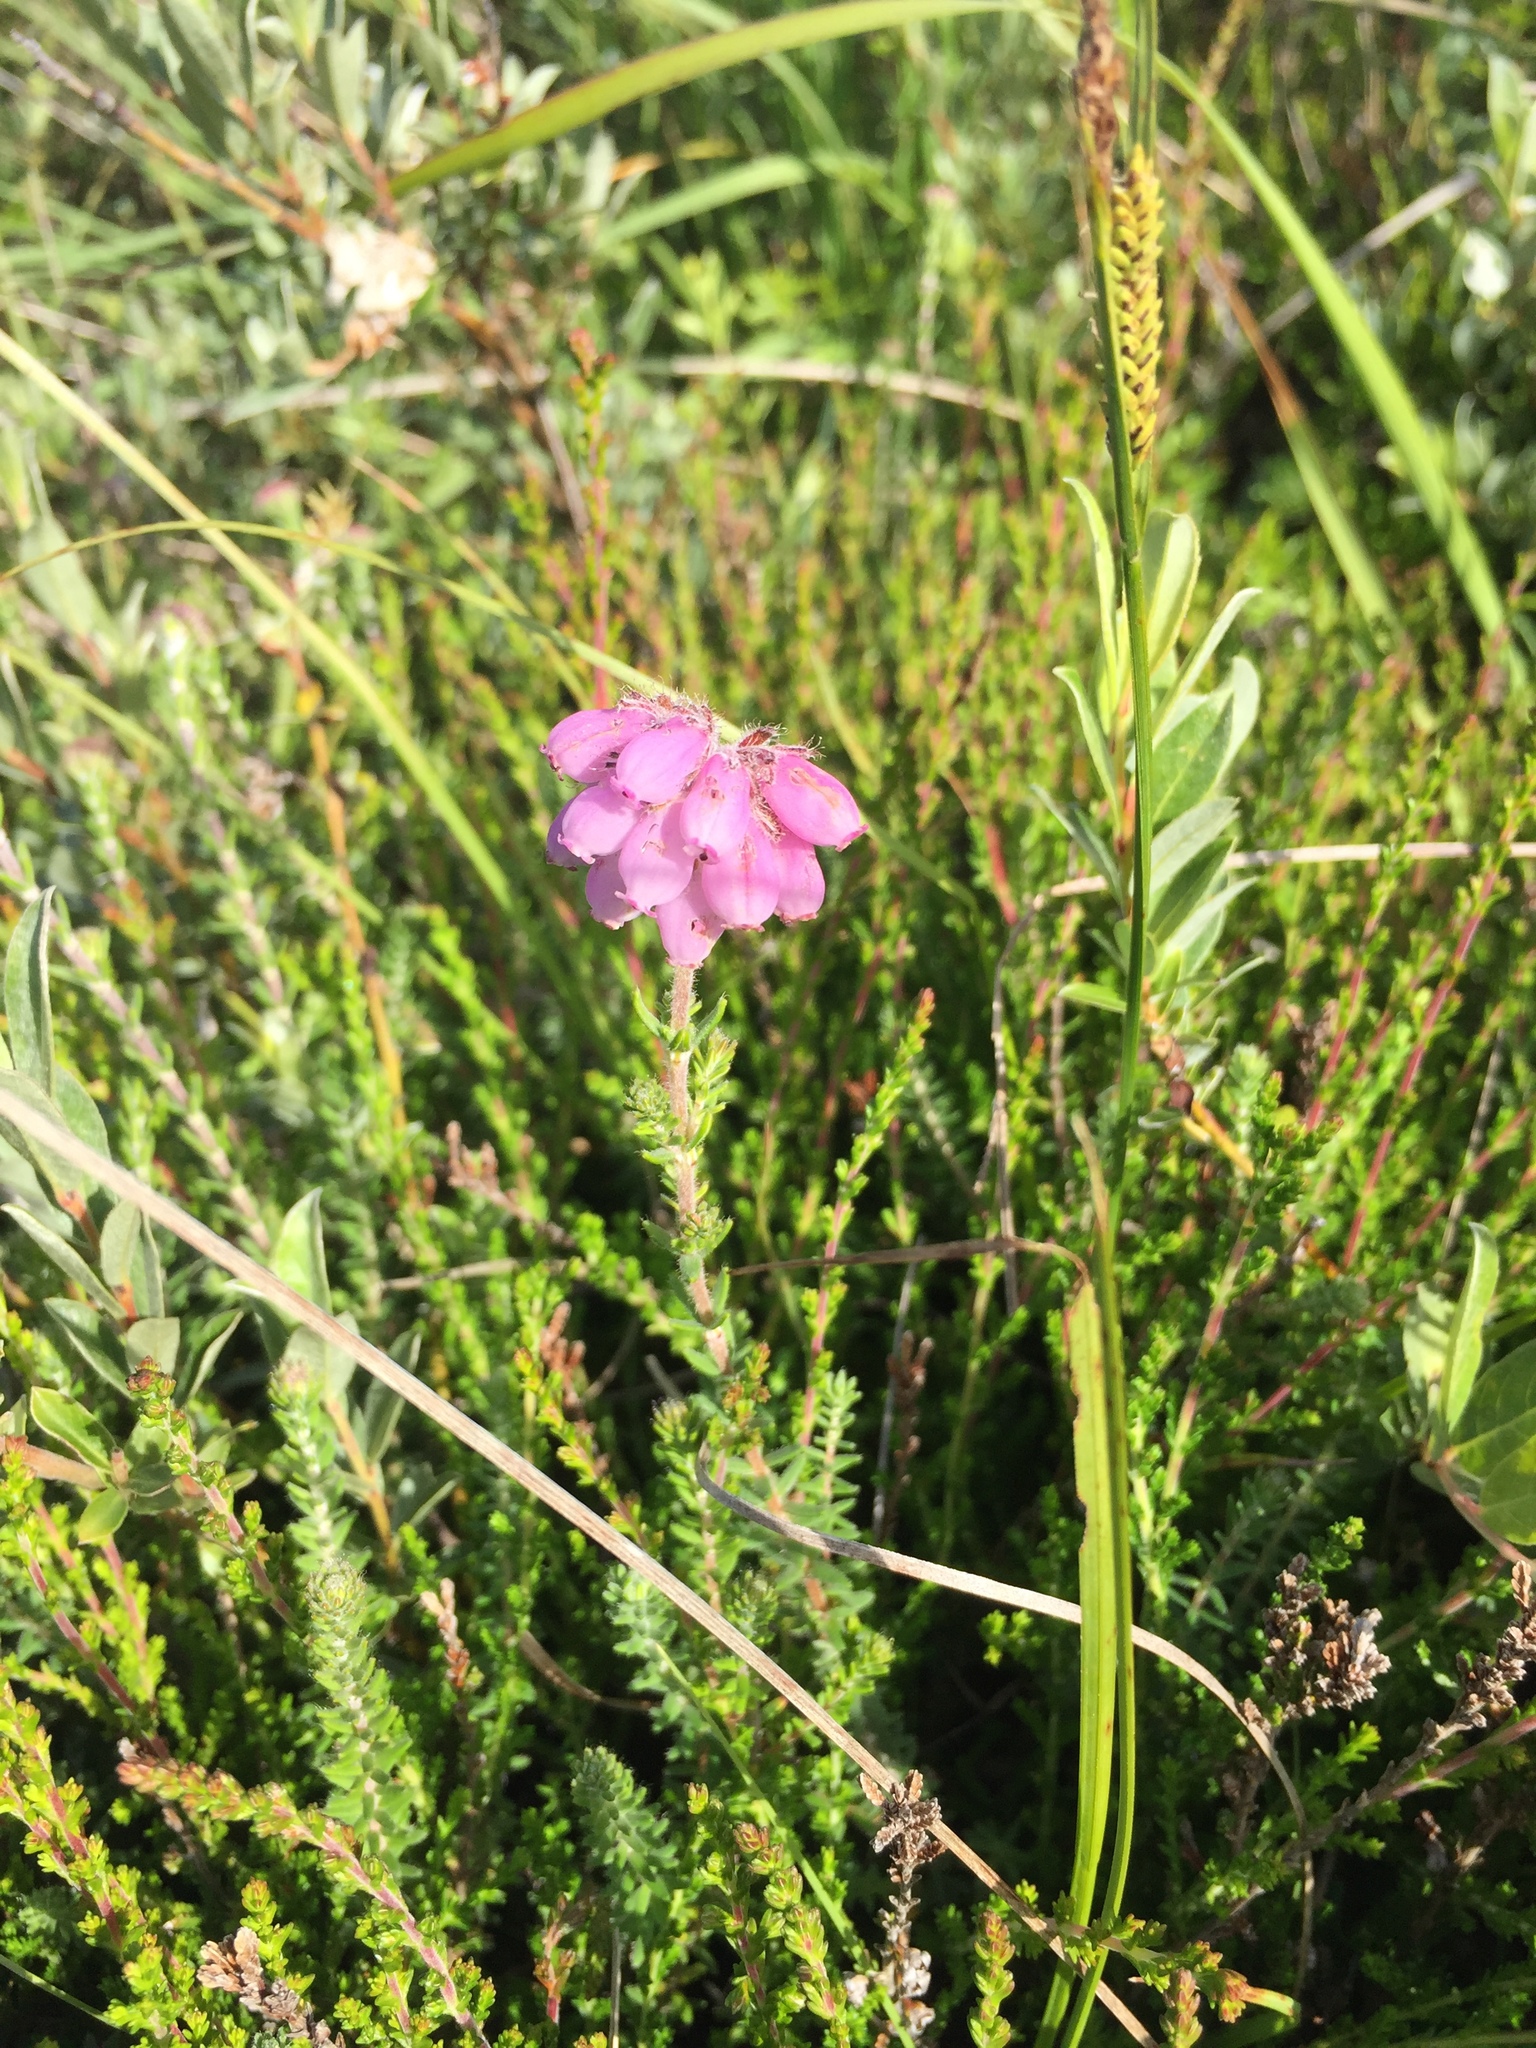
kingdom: Plantae
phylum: Tracheophyta
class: Magnoliopsida
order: Ericales
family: Ericaceae
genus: Erica
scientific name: Erica tetralix
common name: Cross-leaved heath
